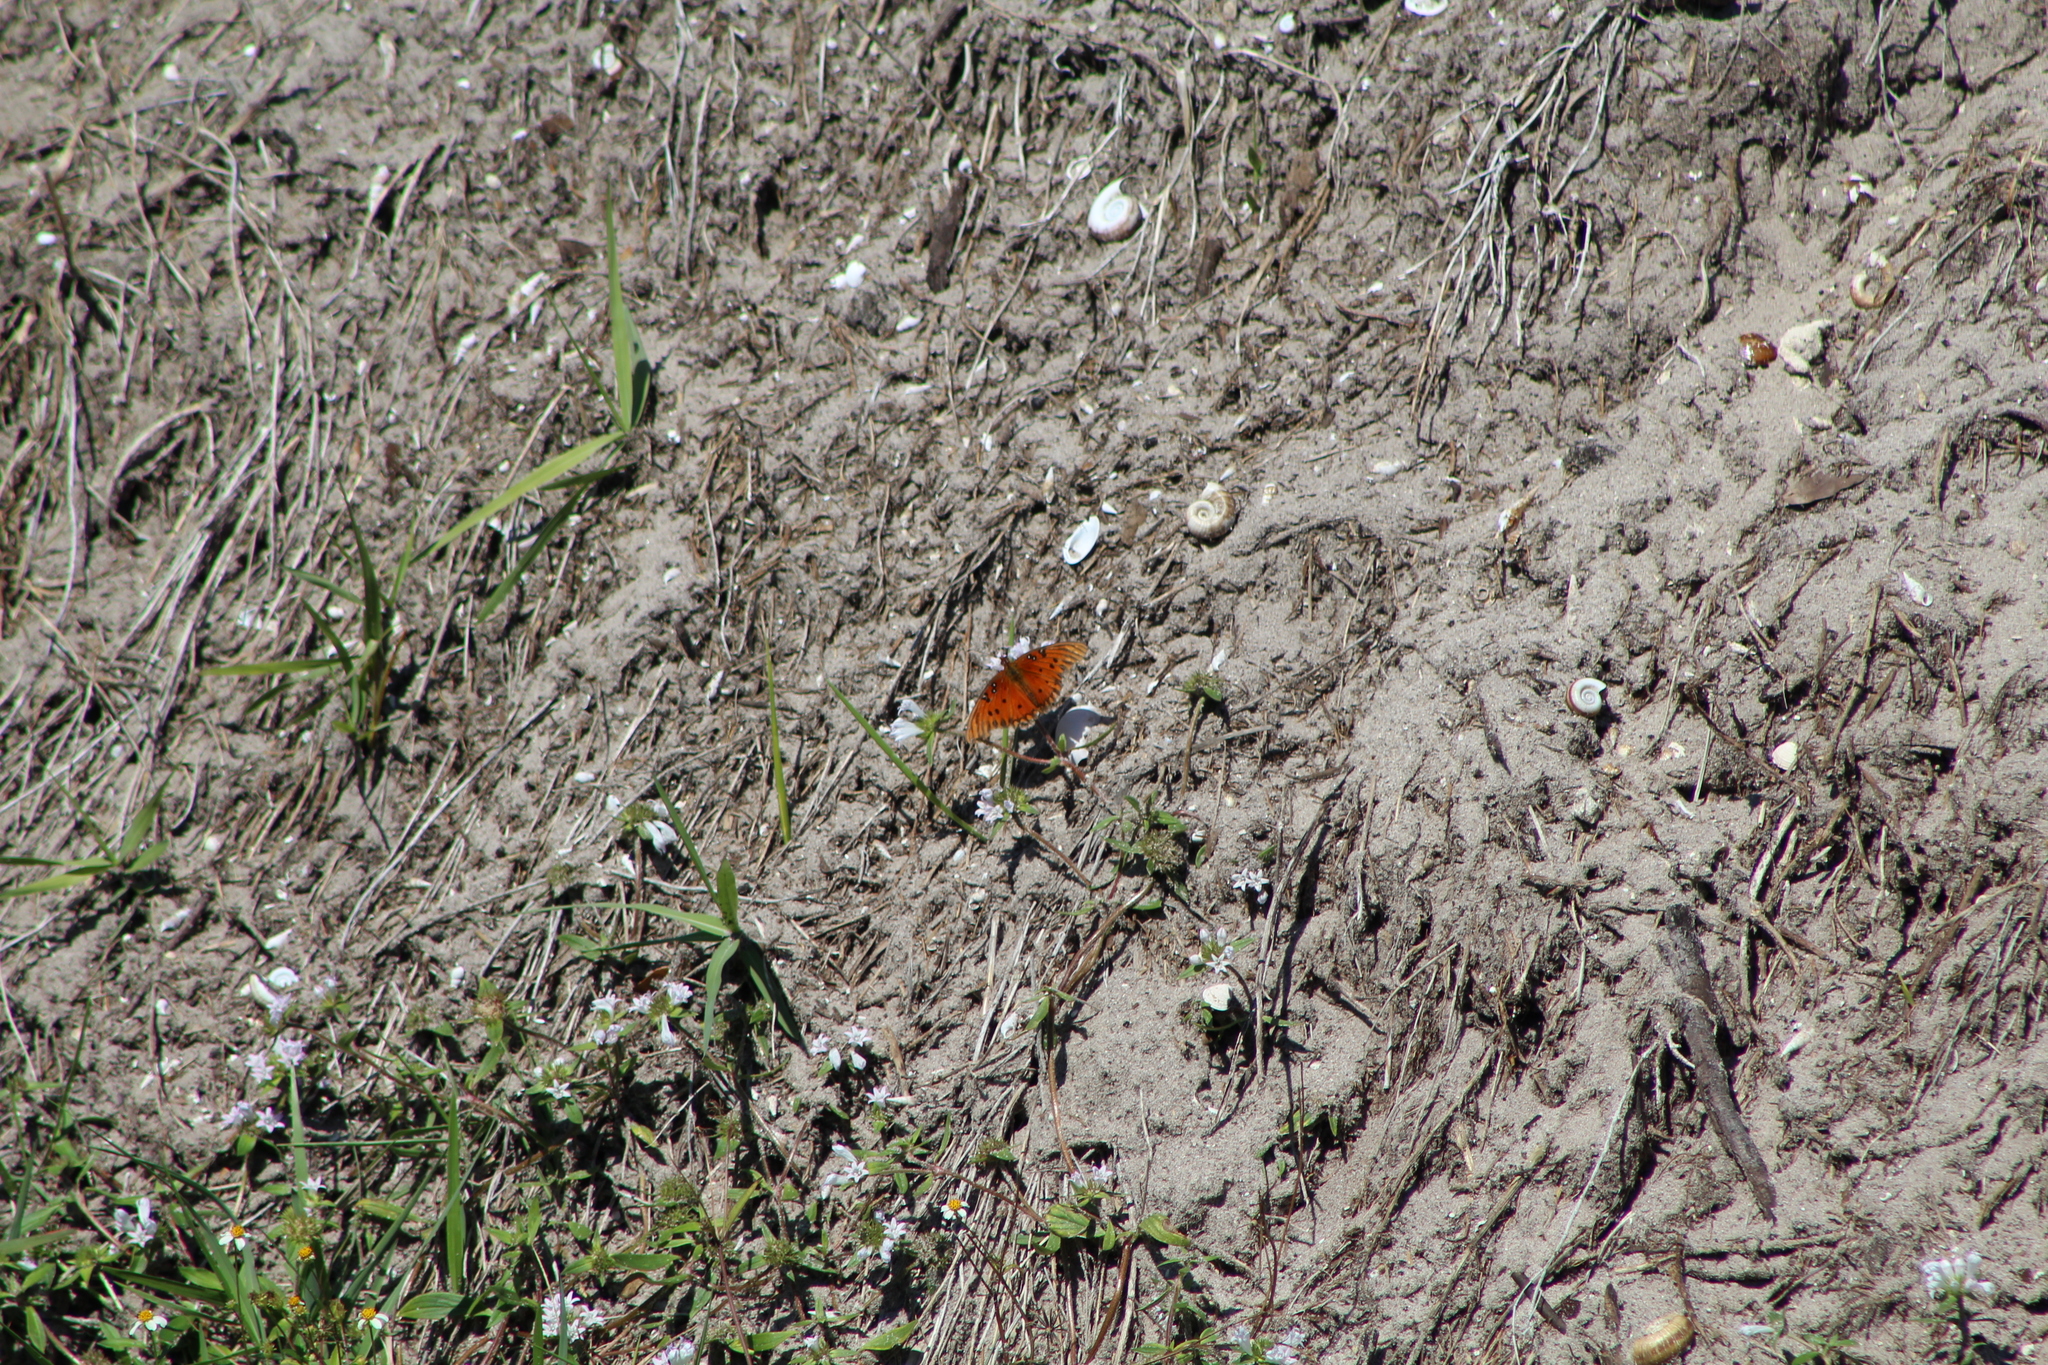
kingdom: Animalia
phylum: Arthropoda
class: Insecta
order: Lepidoptera
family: Nymphalidae
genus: Dione
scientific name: Dione vanillae
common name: Gulf fritillary
